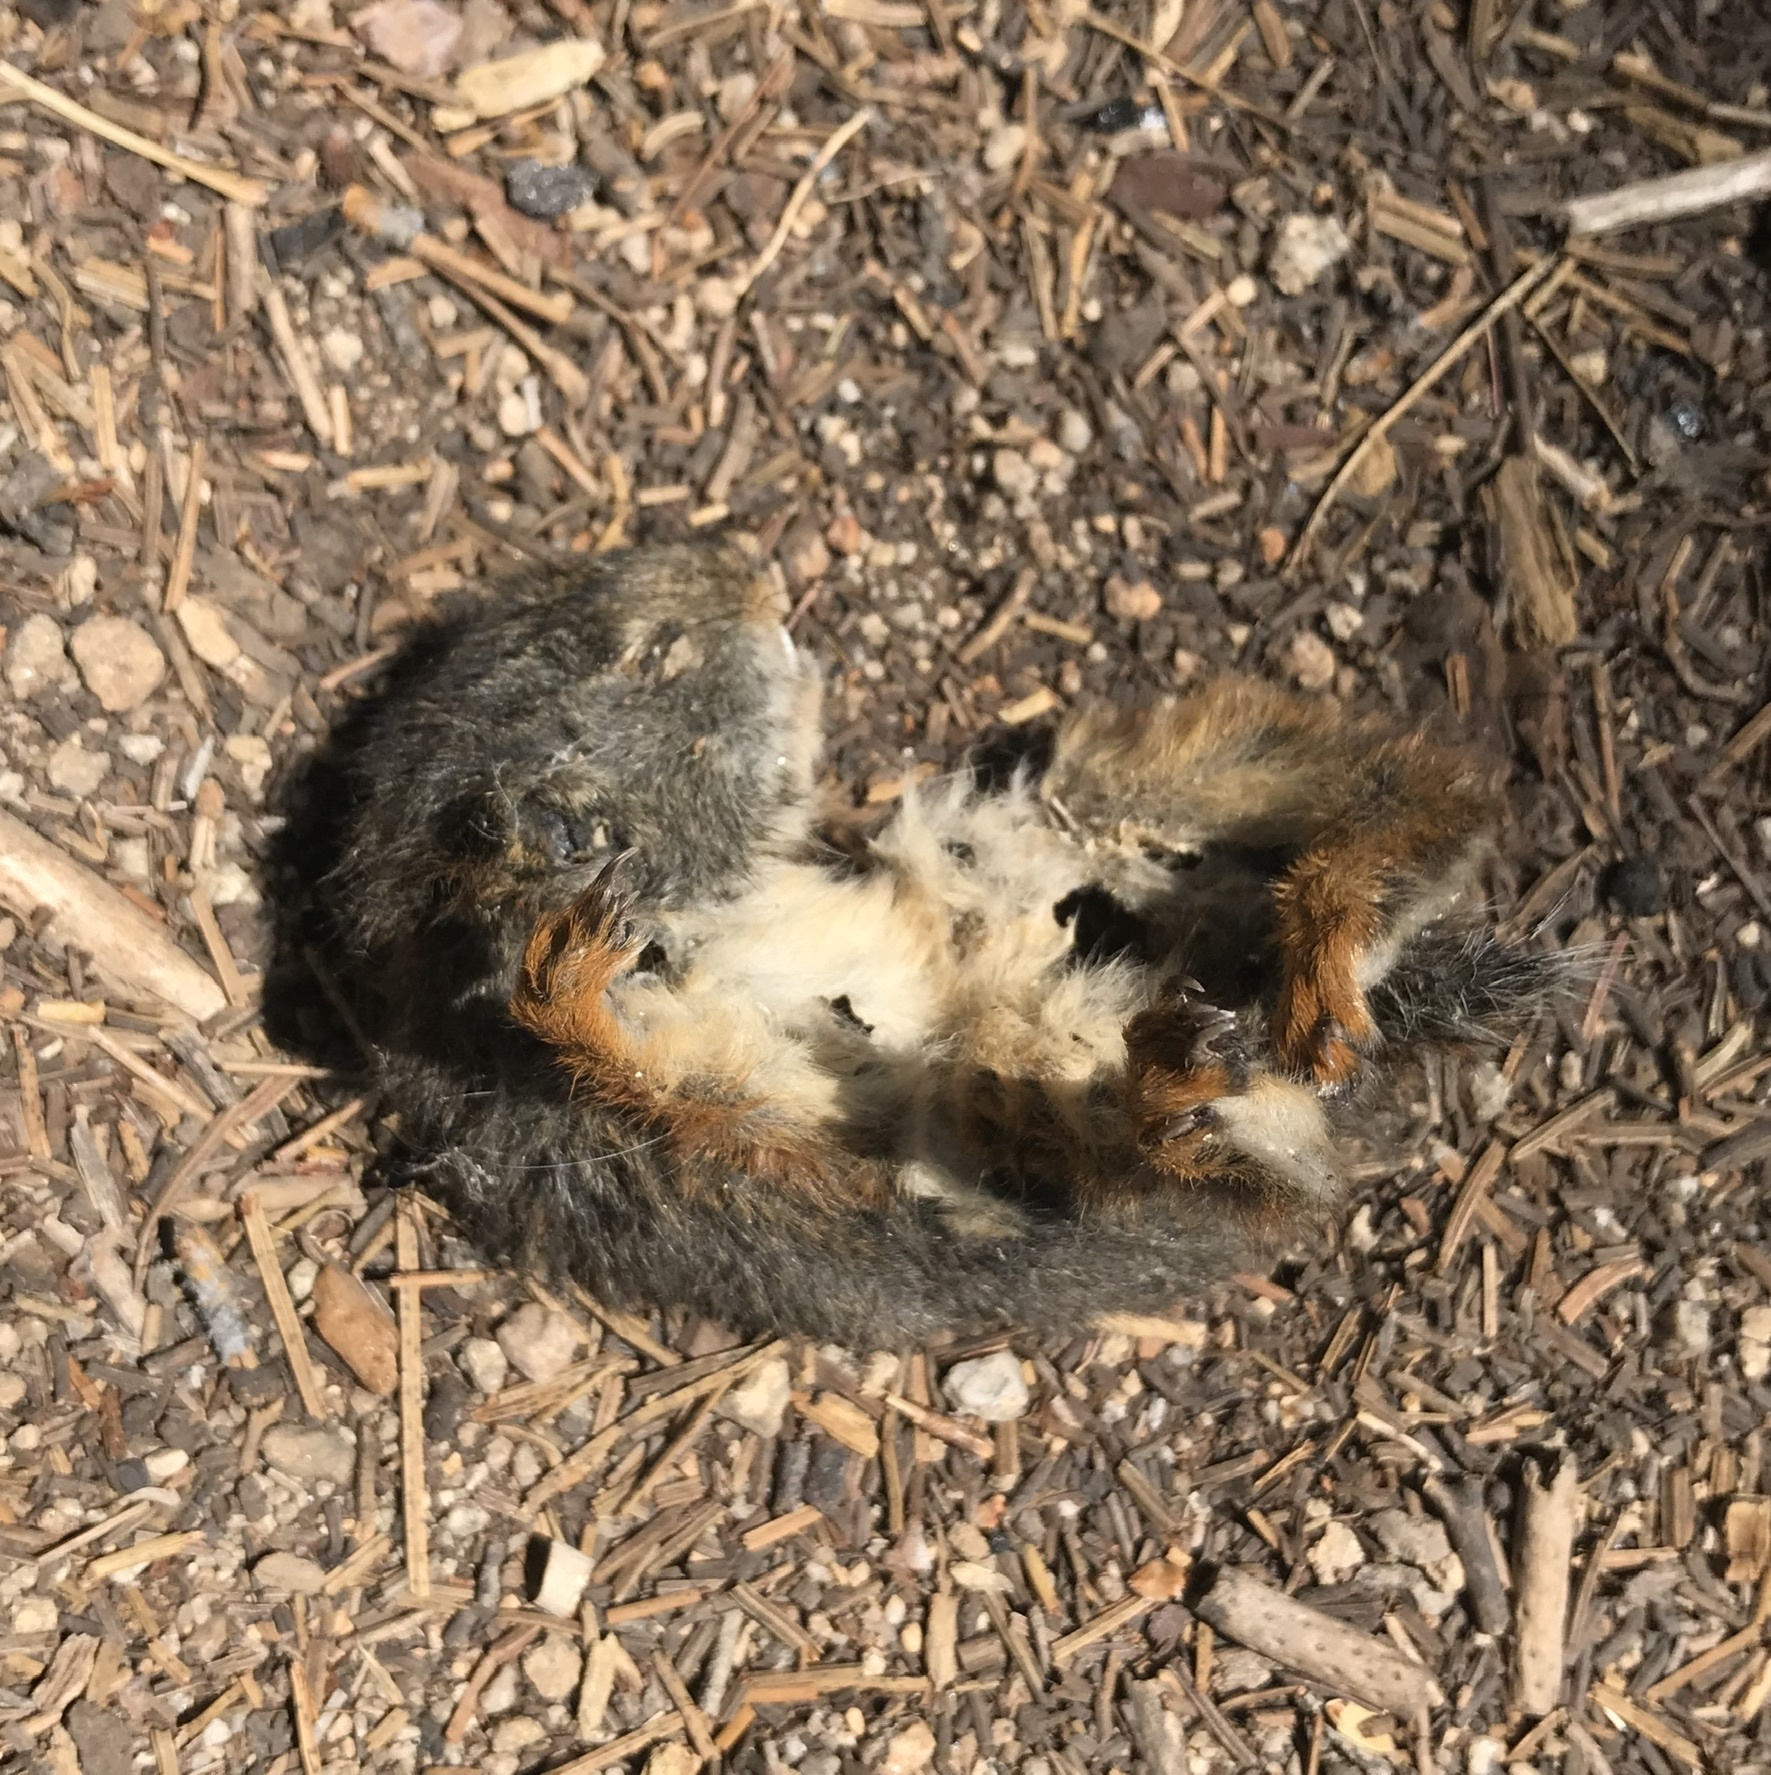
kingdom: Animalia
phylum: Chordata
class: Mammalia
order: Rodentia
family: Sciuridae
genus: Tamiasciurus
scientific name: Tamiasciurus douglasii
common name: Douglas's squirrel
